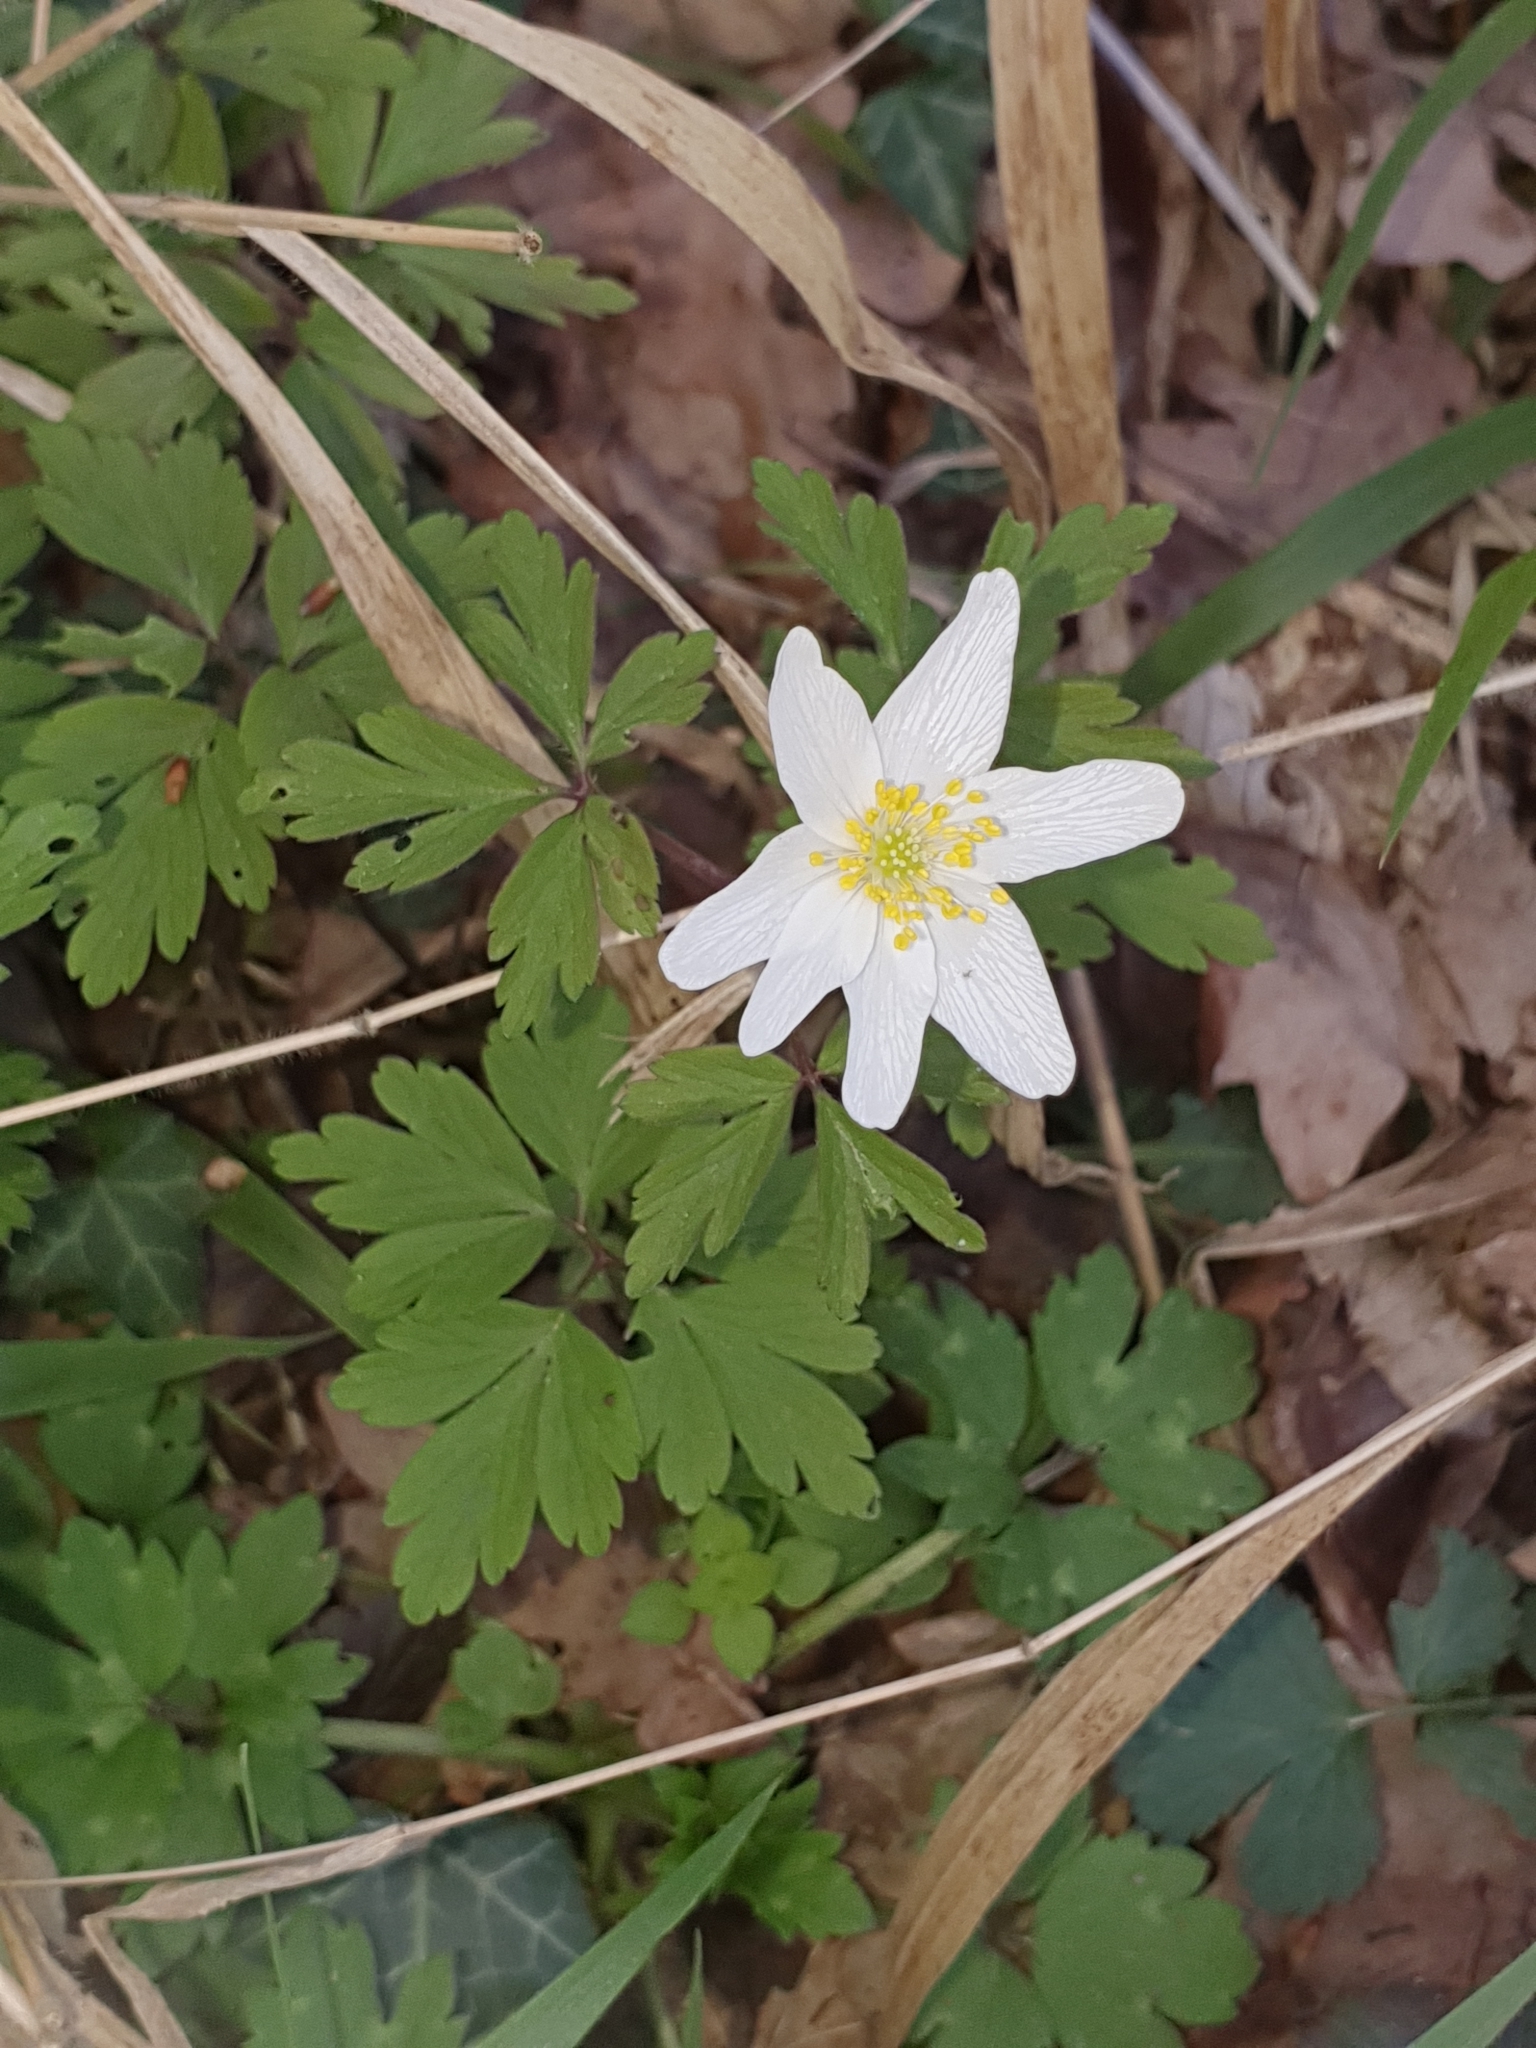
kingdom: Plantae
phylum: Tracheophyta
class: Magnoliopsida
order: Ranunculales
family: Ranunculaceae
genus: Anemone
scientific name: Anemone nemorosa
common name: Wood anemone
